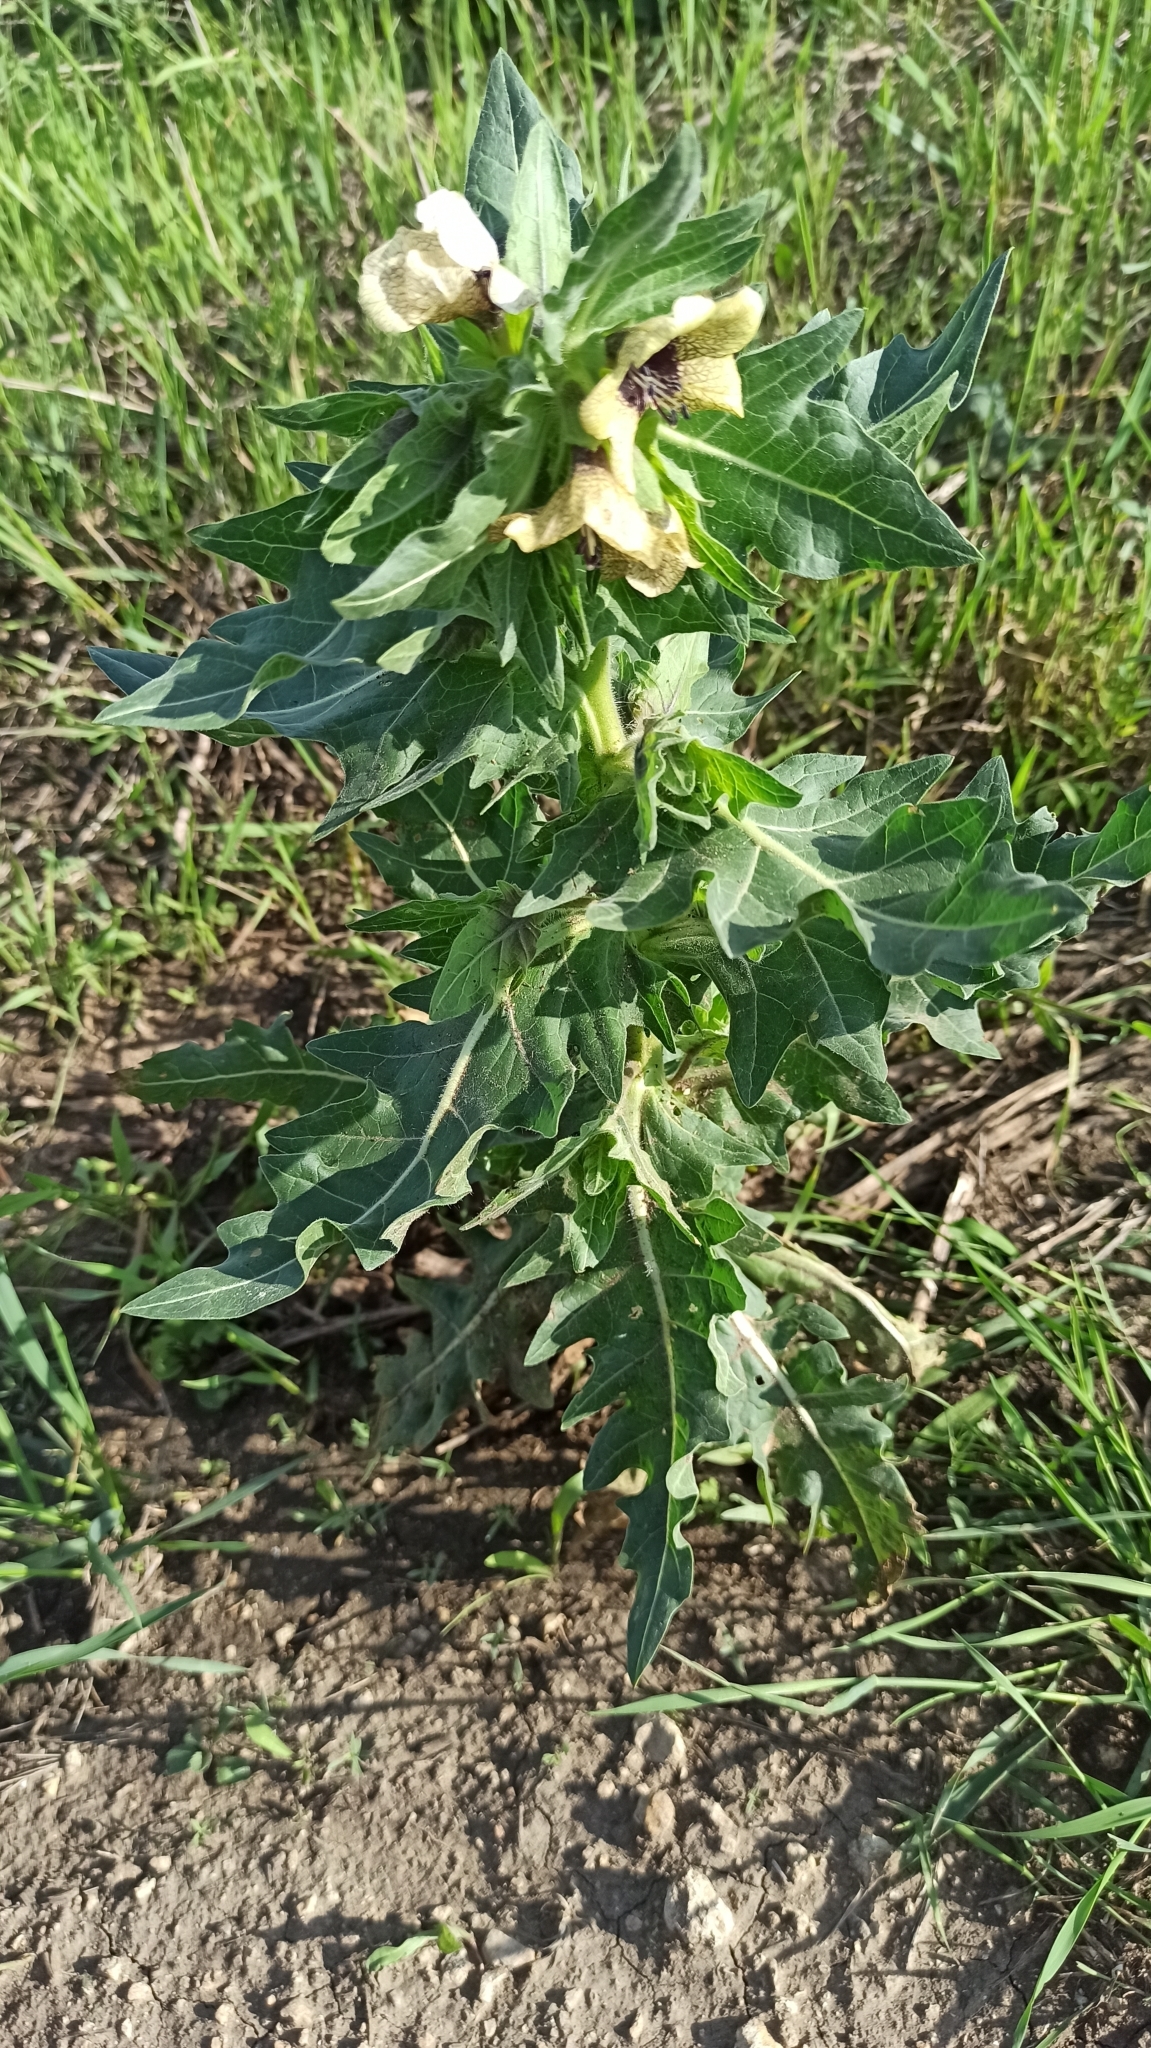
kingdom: Plantae
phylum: Tracheophyta
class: Magnoliopsida
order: Solanales
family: Solanaceae
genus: Hyoscyamus
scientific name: Hyoscyamus niger
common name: Henbane
